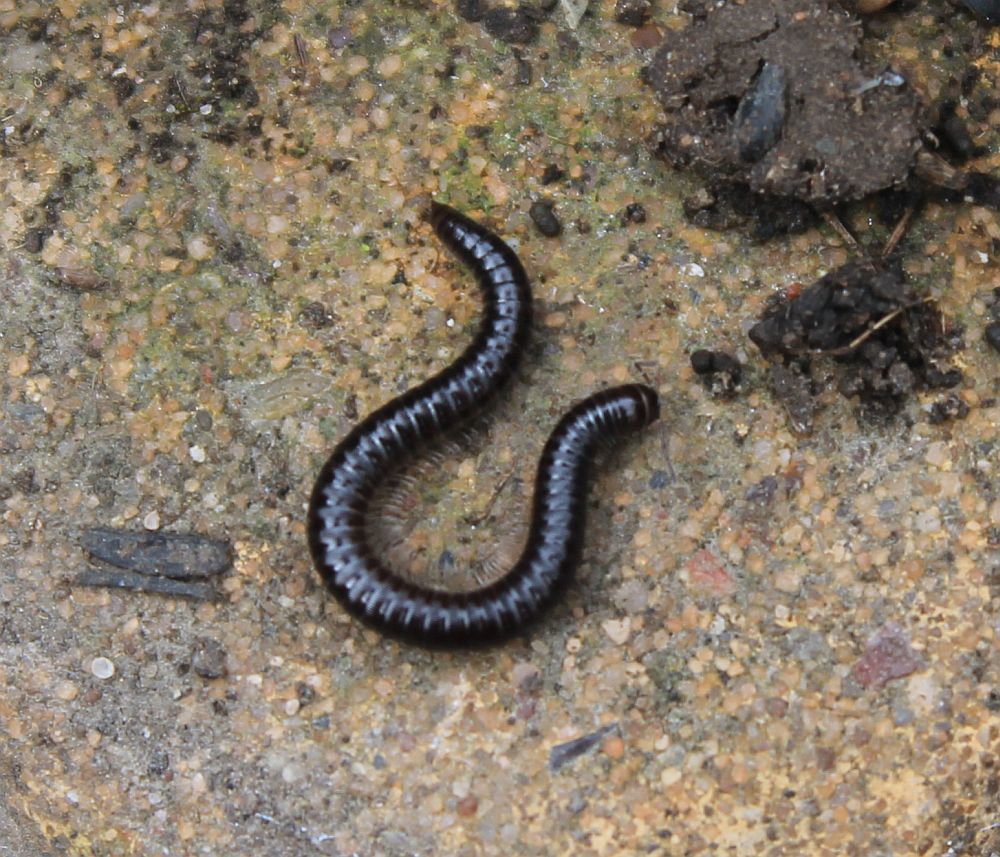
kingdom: Animalia
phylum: Arthropoda
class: Diplopoda
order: Julida
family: Julidae
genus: Tachypodoiulus
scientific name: Tachypodoiulus niger
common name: White-legged snake millipede
